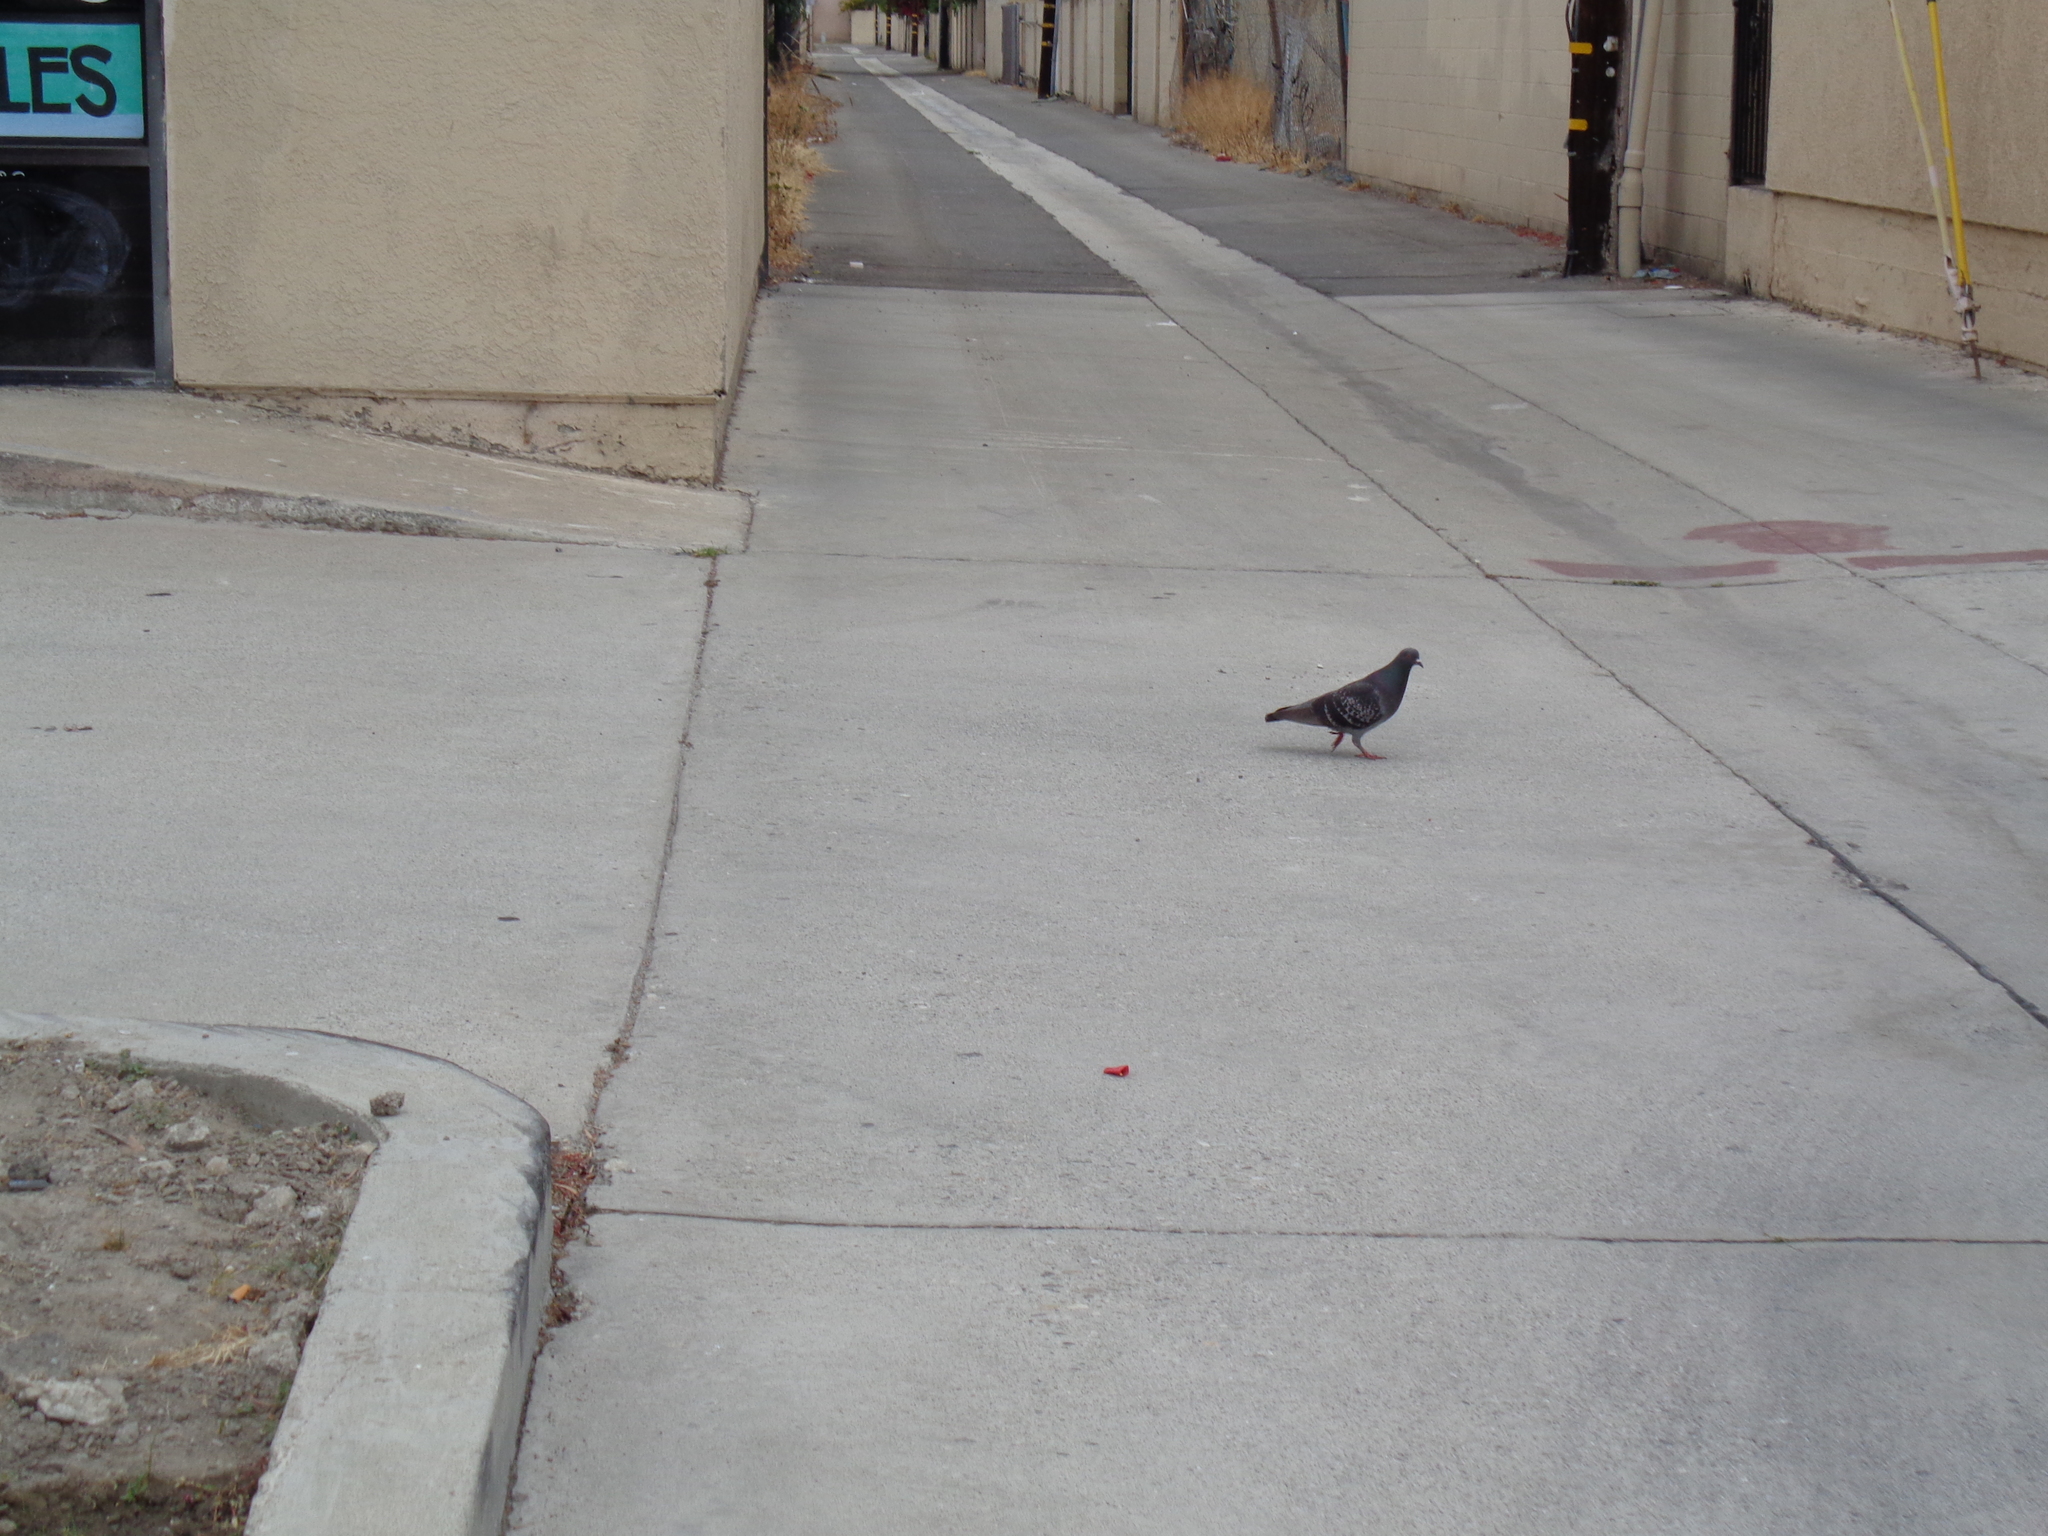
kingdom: Animalia
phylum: Chordata
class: Aves
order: Columbiformes
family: Columbidae
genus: Columba
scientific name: Columba livia
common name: Rock pigeon
